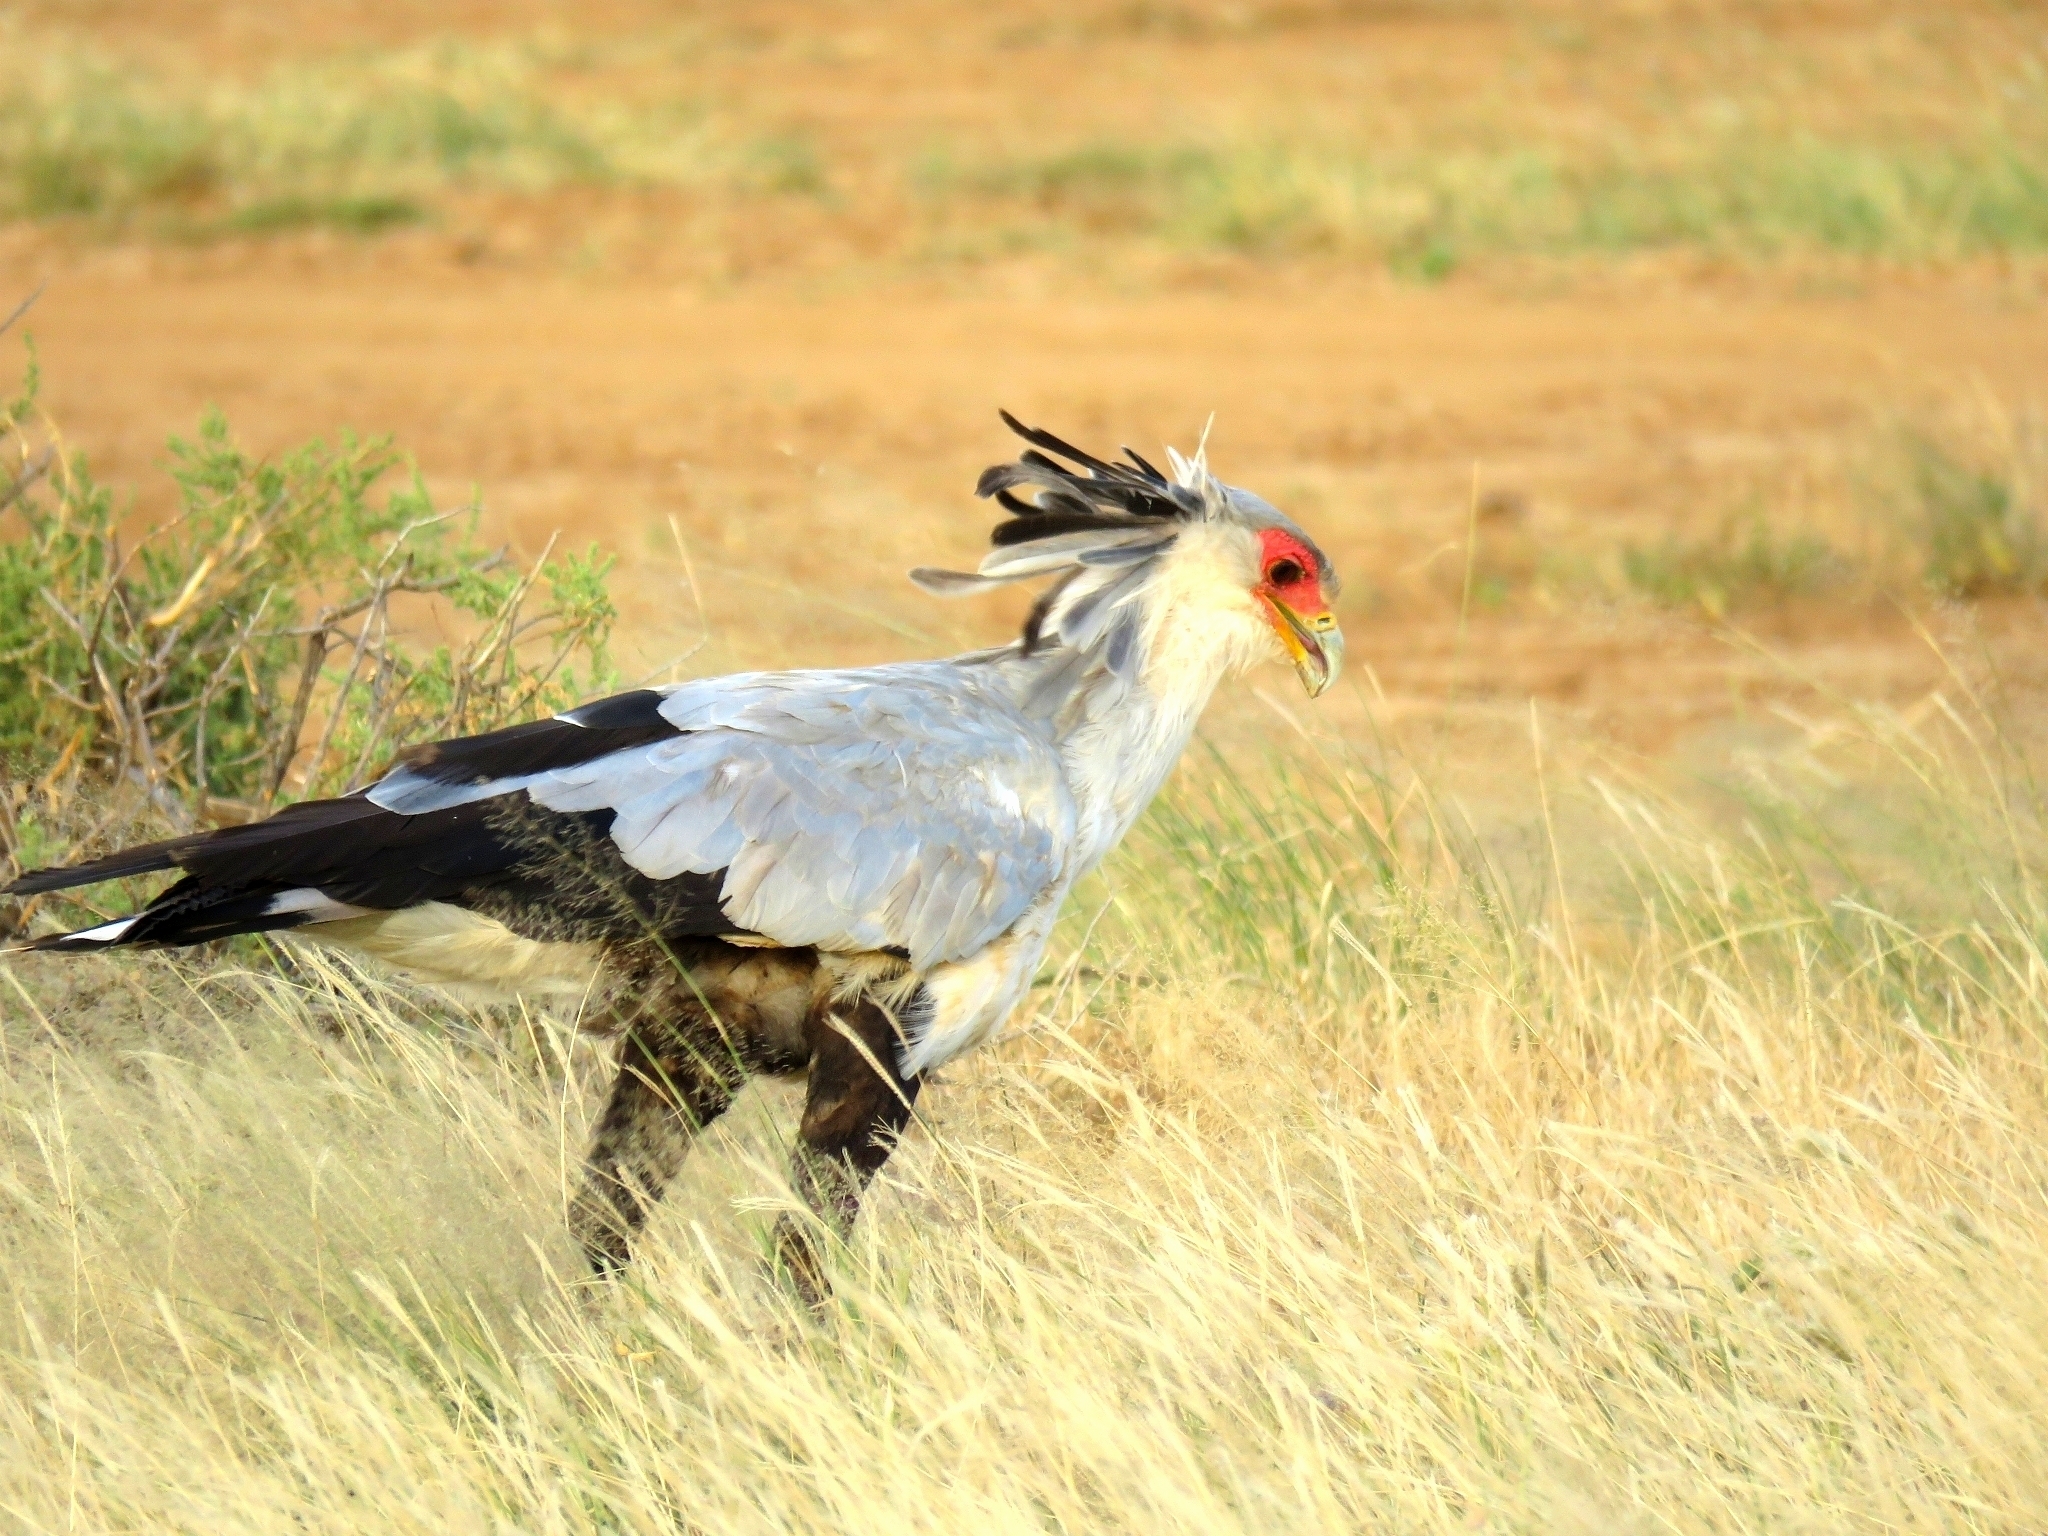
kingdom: Animalia
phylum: Chordata
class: Aves
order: Accipitriformes
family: Sagittariidae
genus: Sagittarius
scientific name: Sagittarius serpentarius
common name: Secretarybird
